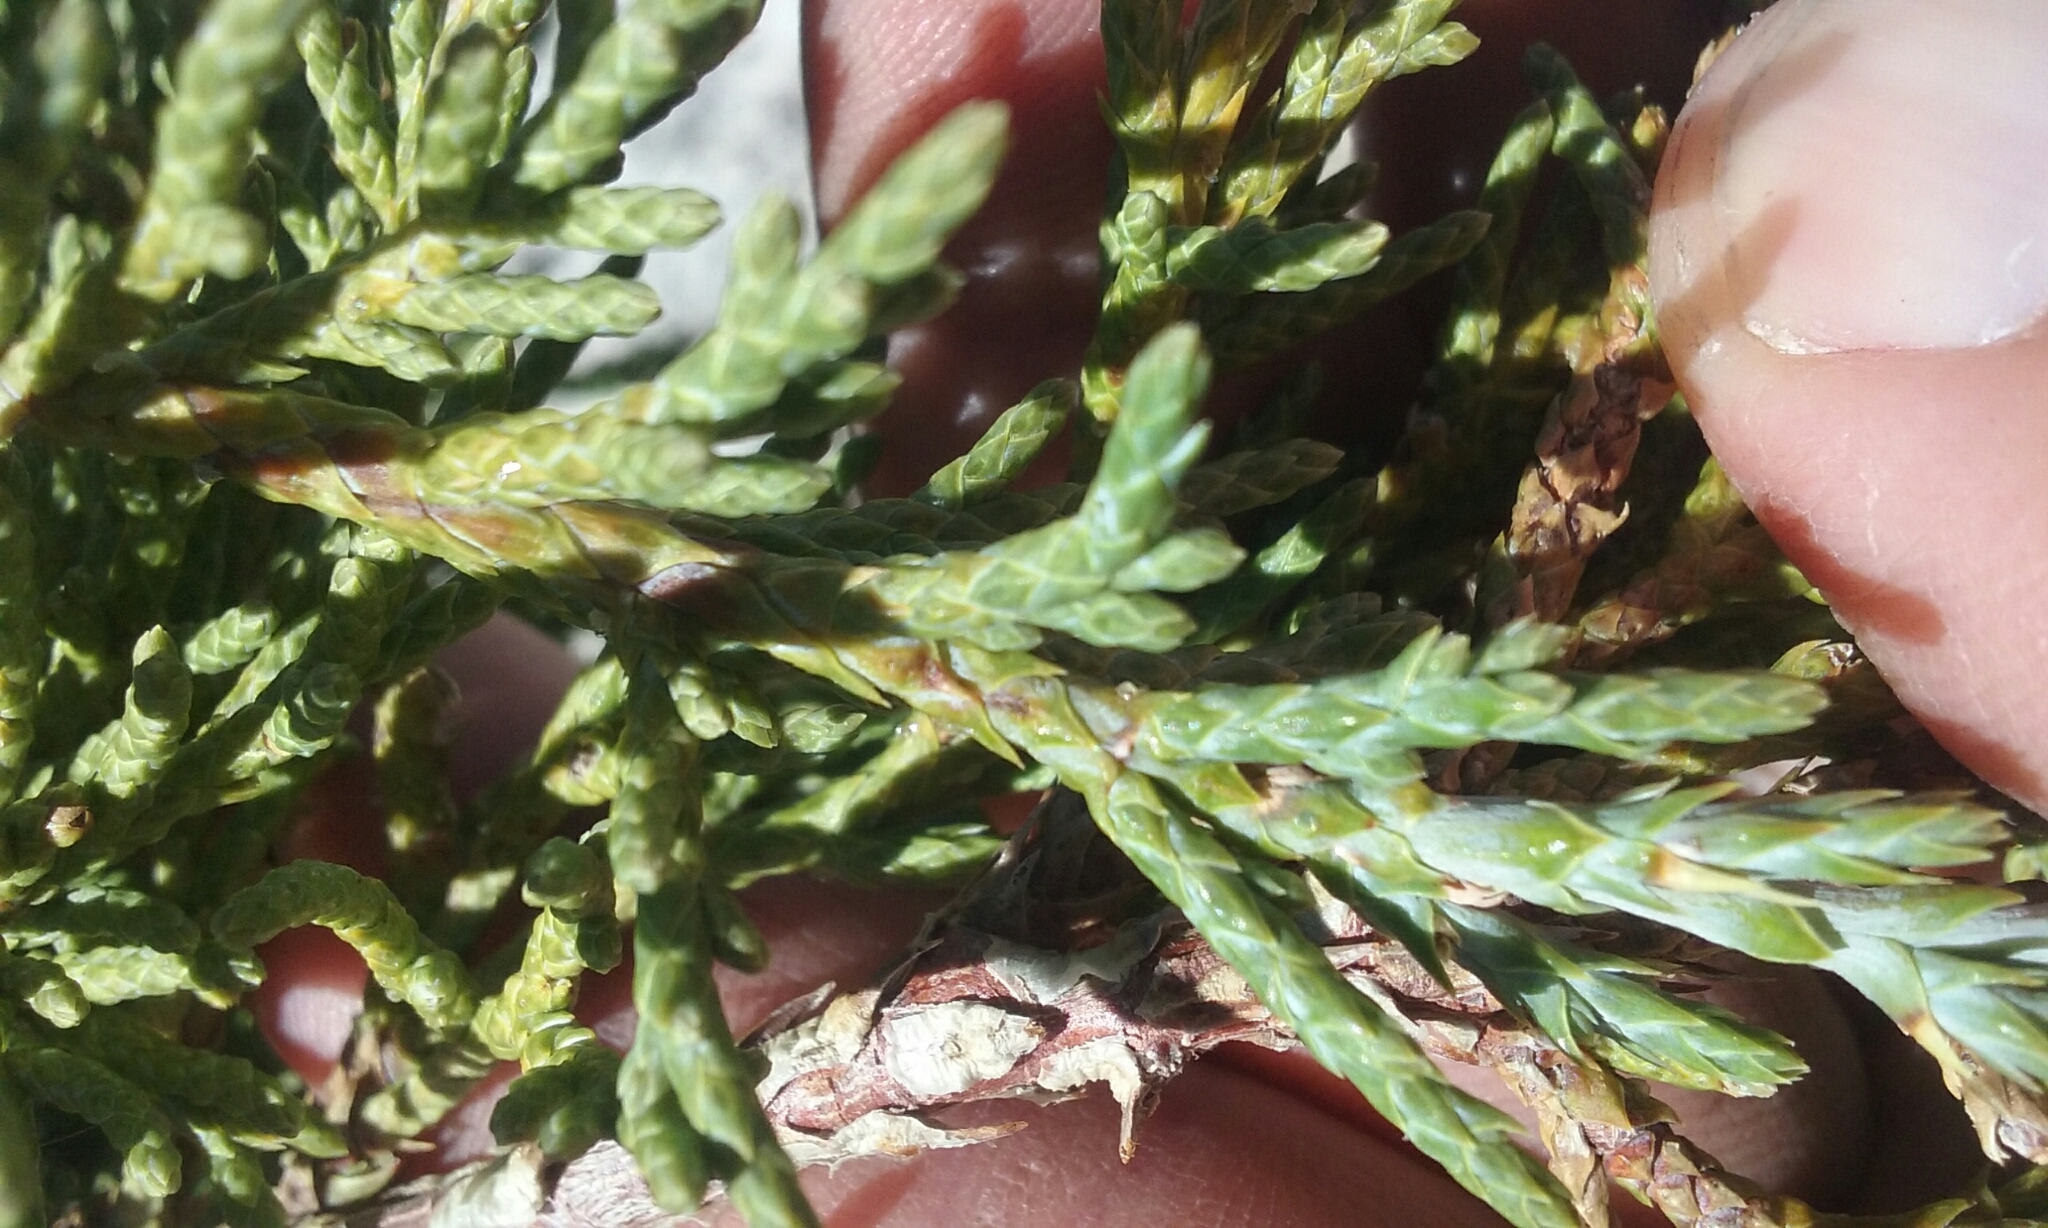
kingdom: Plantae
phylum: Tracheophyta
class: Pinopsida
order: Pinales
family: Cupressaceae
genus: Juniperus
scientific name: Juniperus occidentalis
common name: Western juniper
